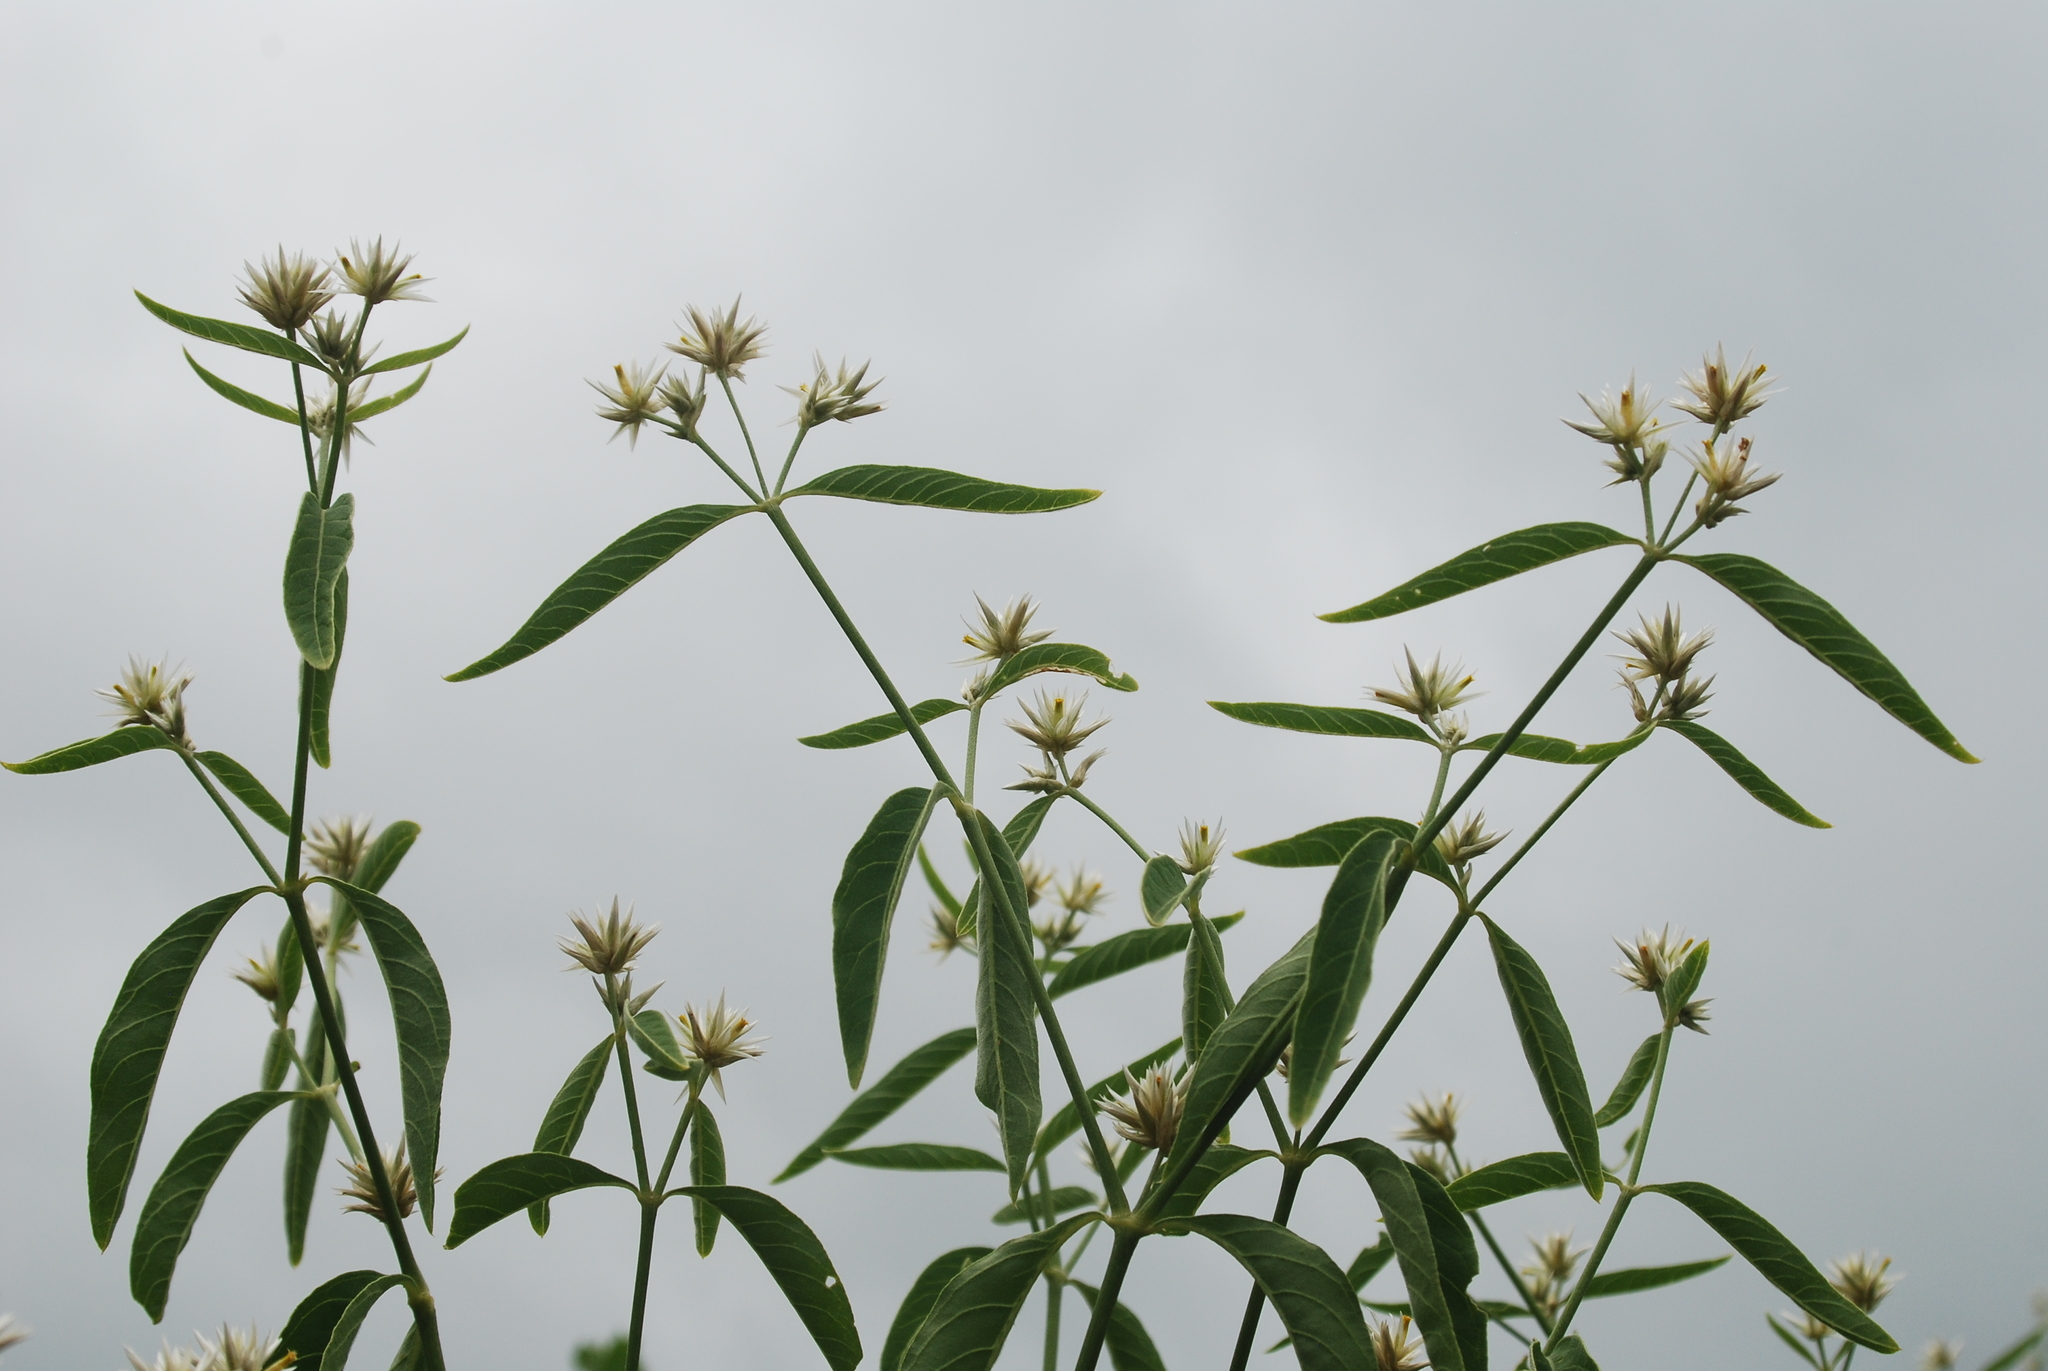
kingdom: Plantae
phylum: Tracheophyta
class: Magnoliopsida
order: Caryophyllales
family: Amaranthaceae
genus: Alternanthera
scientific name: Alternanthera echinocephala
